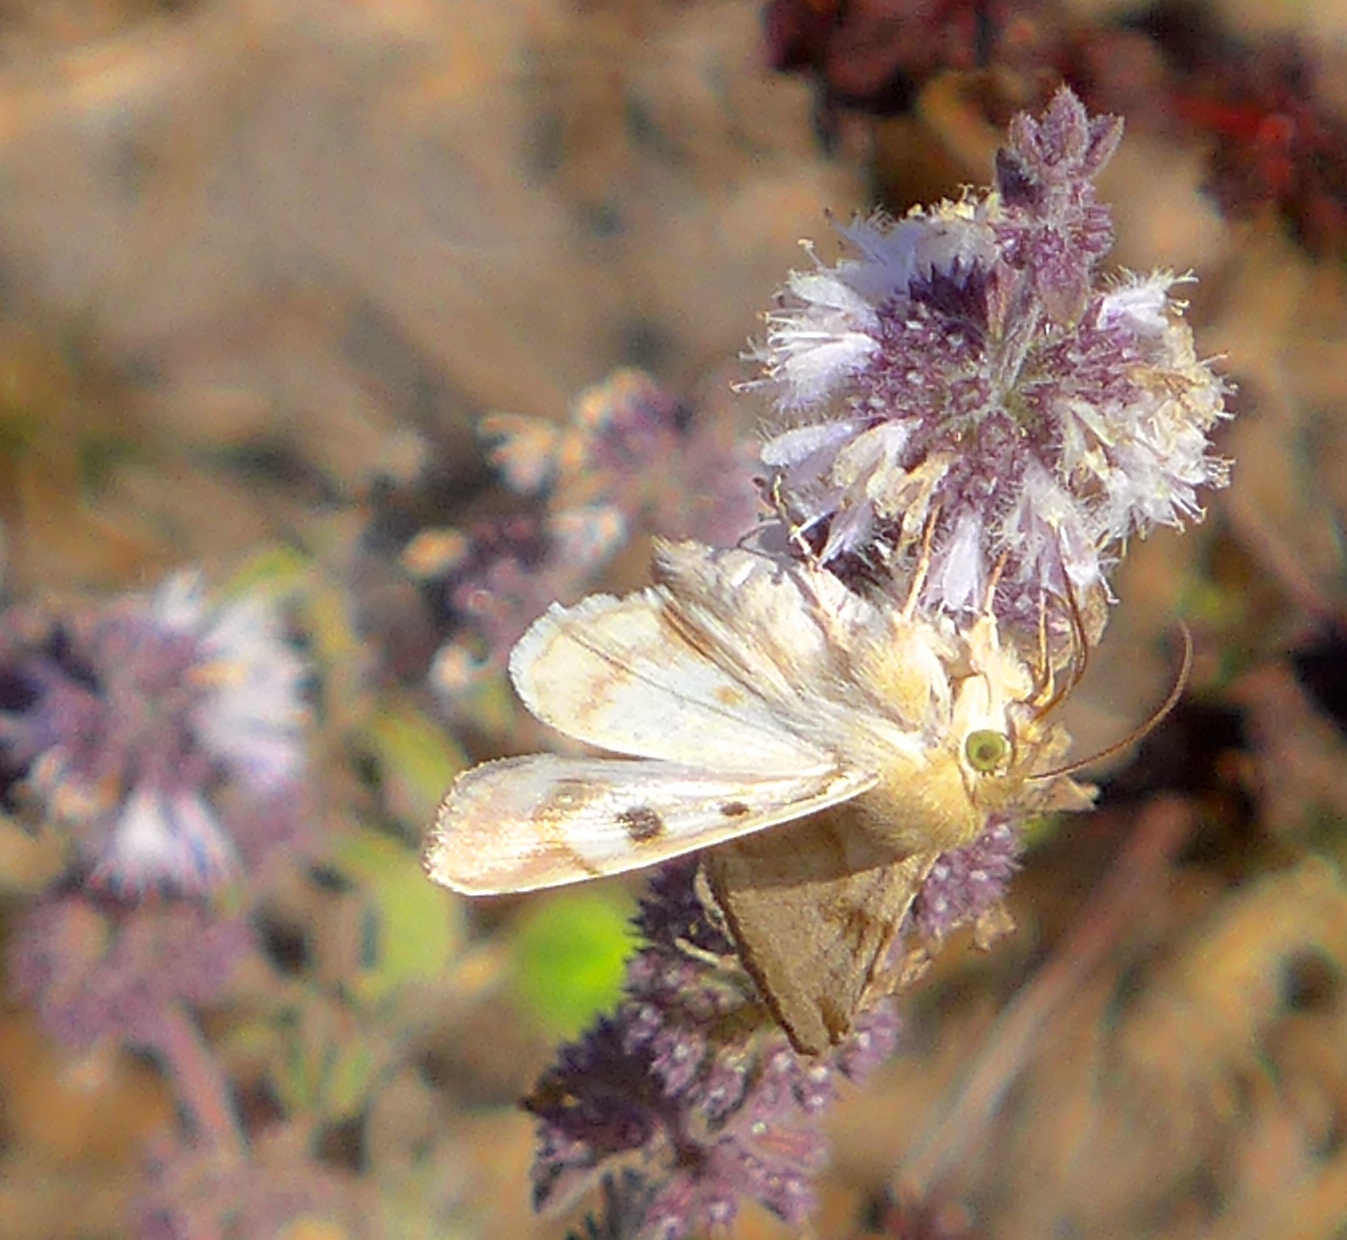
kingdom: Animalia
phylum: Arthropoda
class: Insecta
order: Lepidoptera
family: Noctuidae
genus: Heliothis
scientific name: Heliothis phloxiphaga
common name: Darker spotted straw moth
